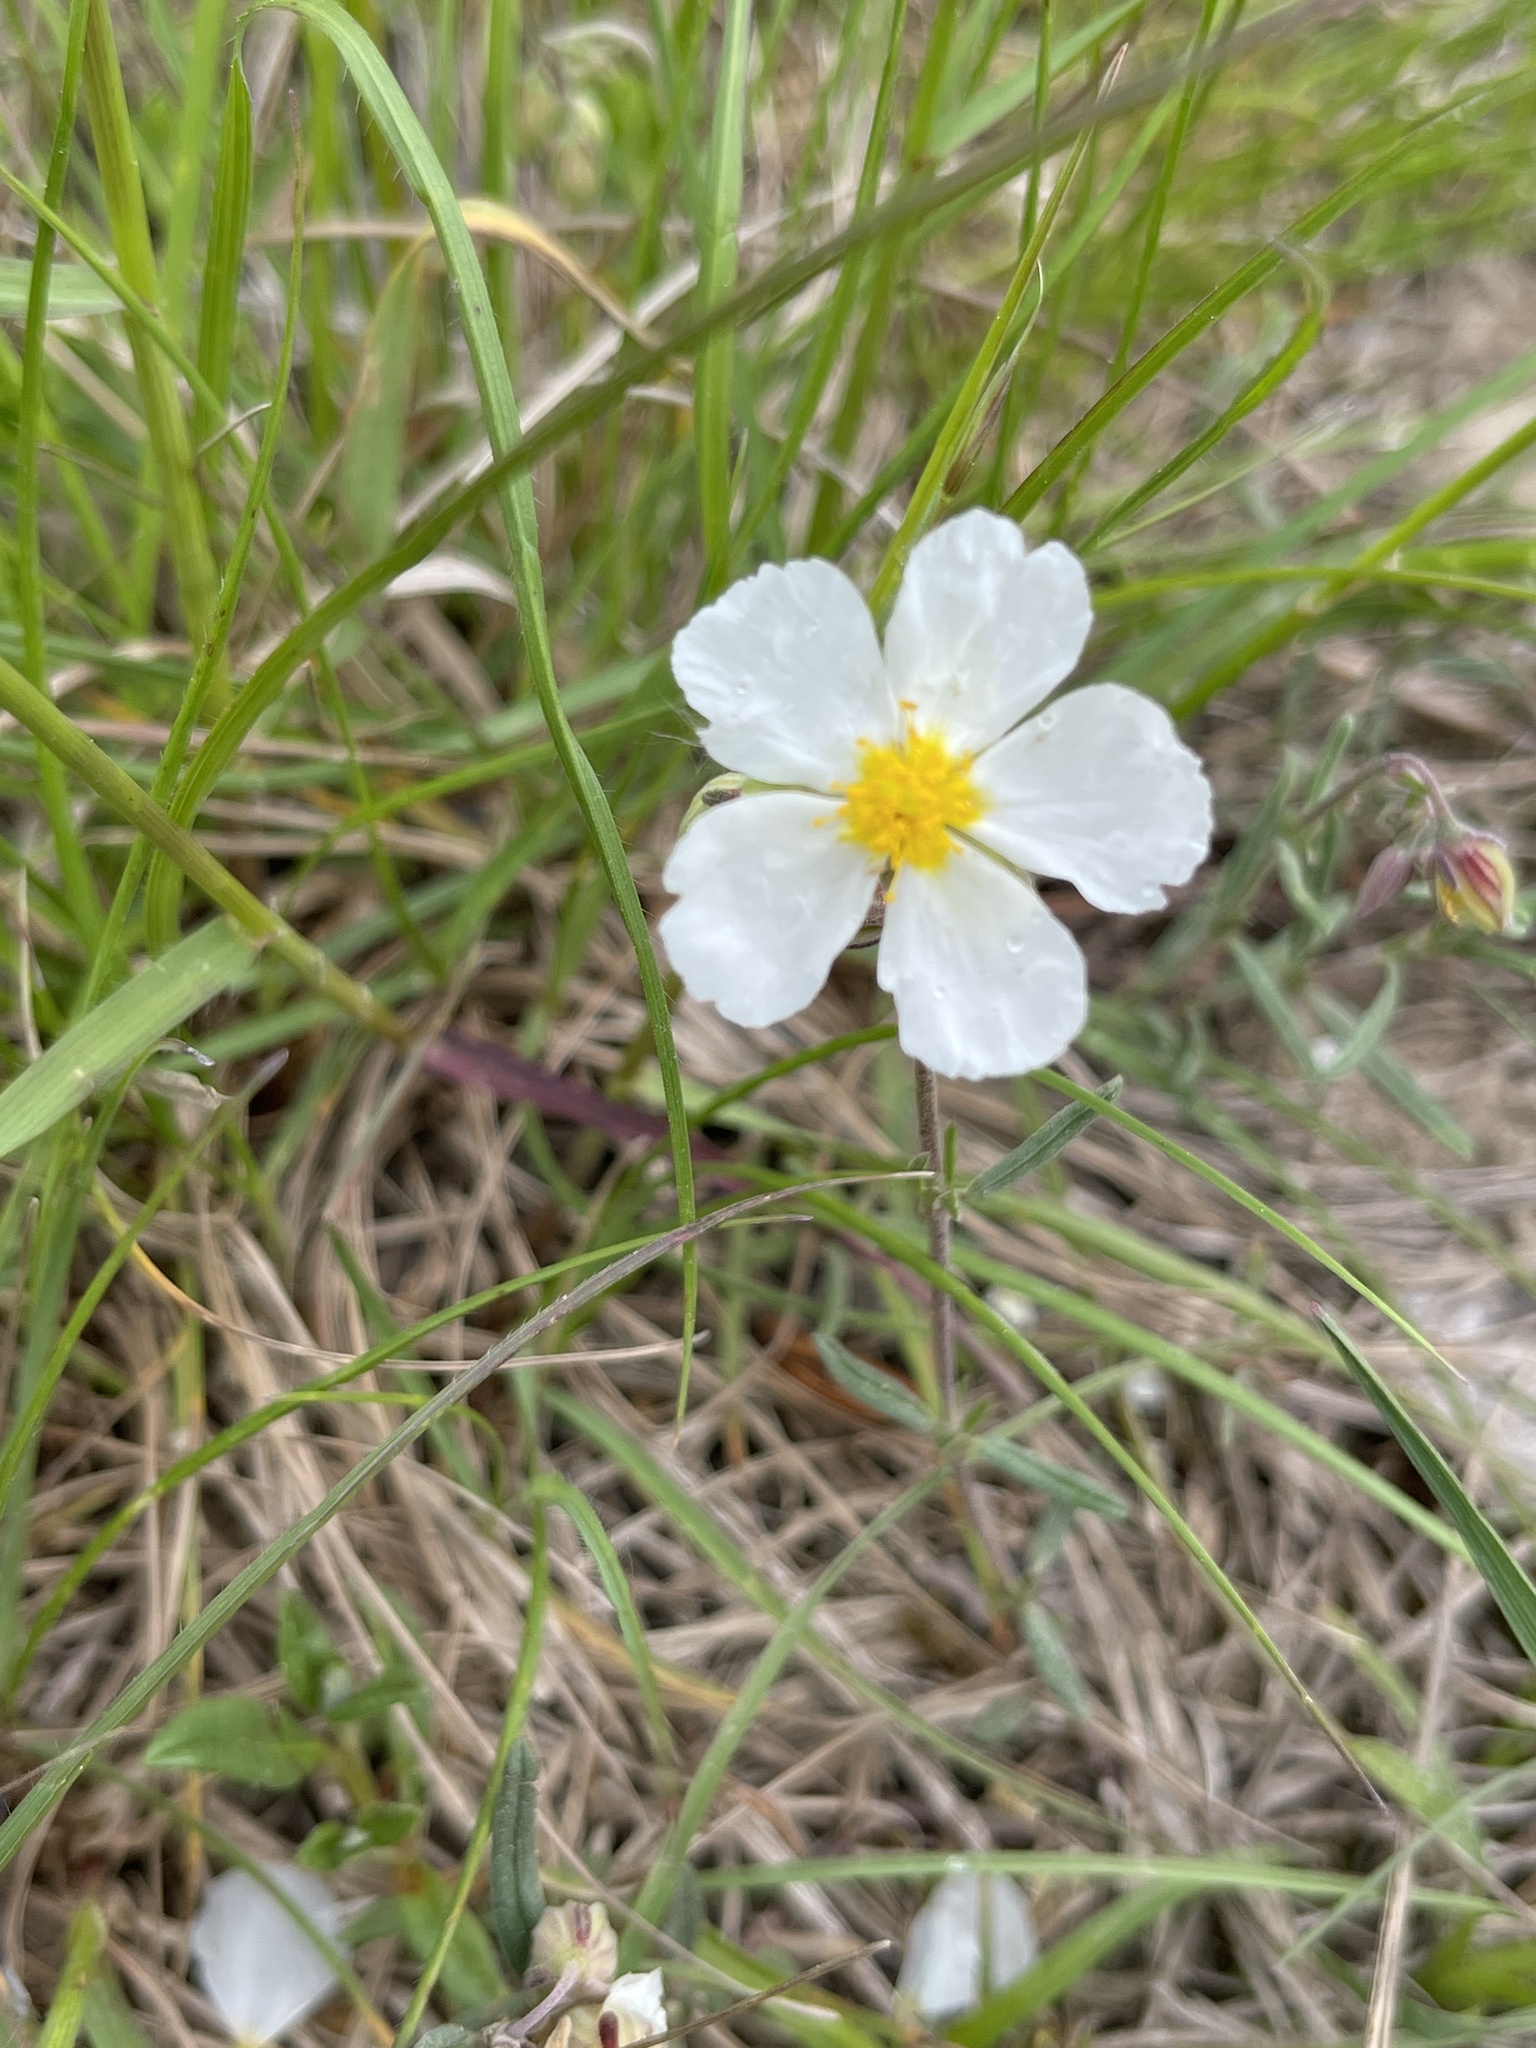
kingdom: Plantae
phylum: Tracheophyta
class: Magnoliopsida
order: Malvales
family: Cistaceae
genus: Helianthemum
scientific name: Helianthemum apenninum
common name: White rock-rose
